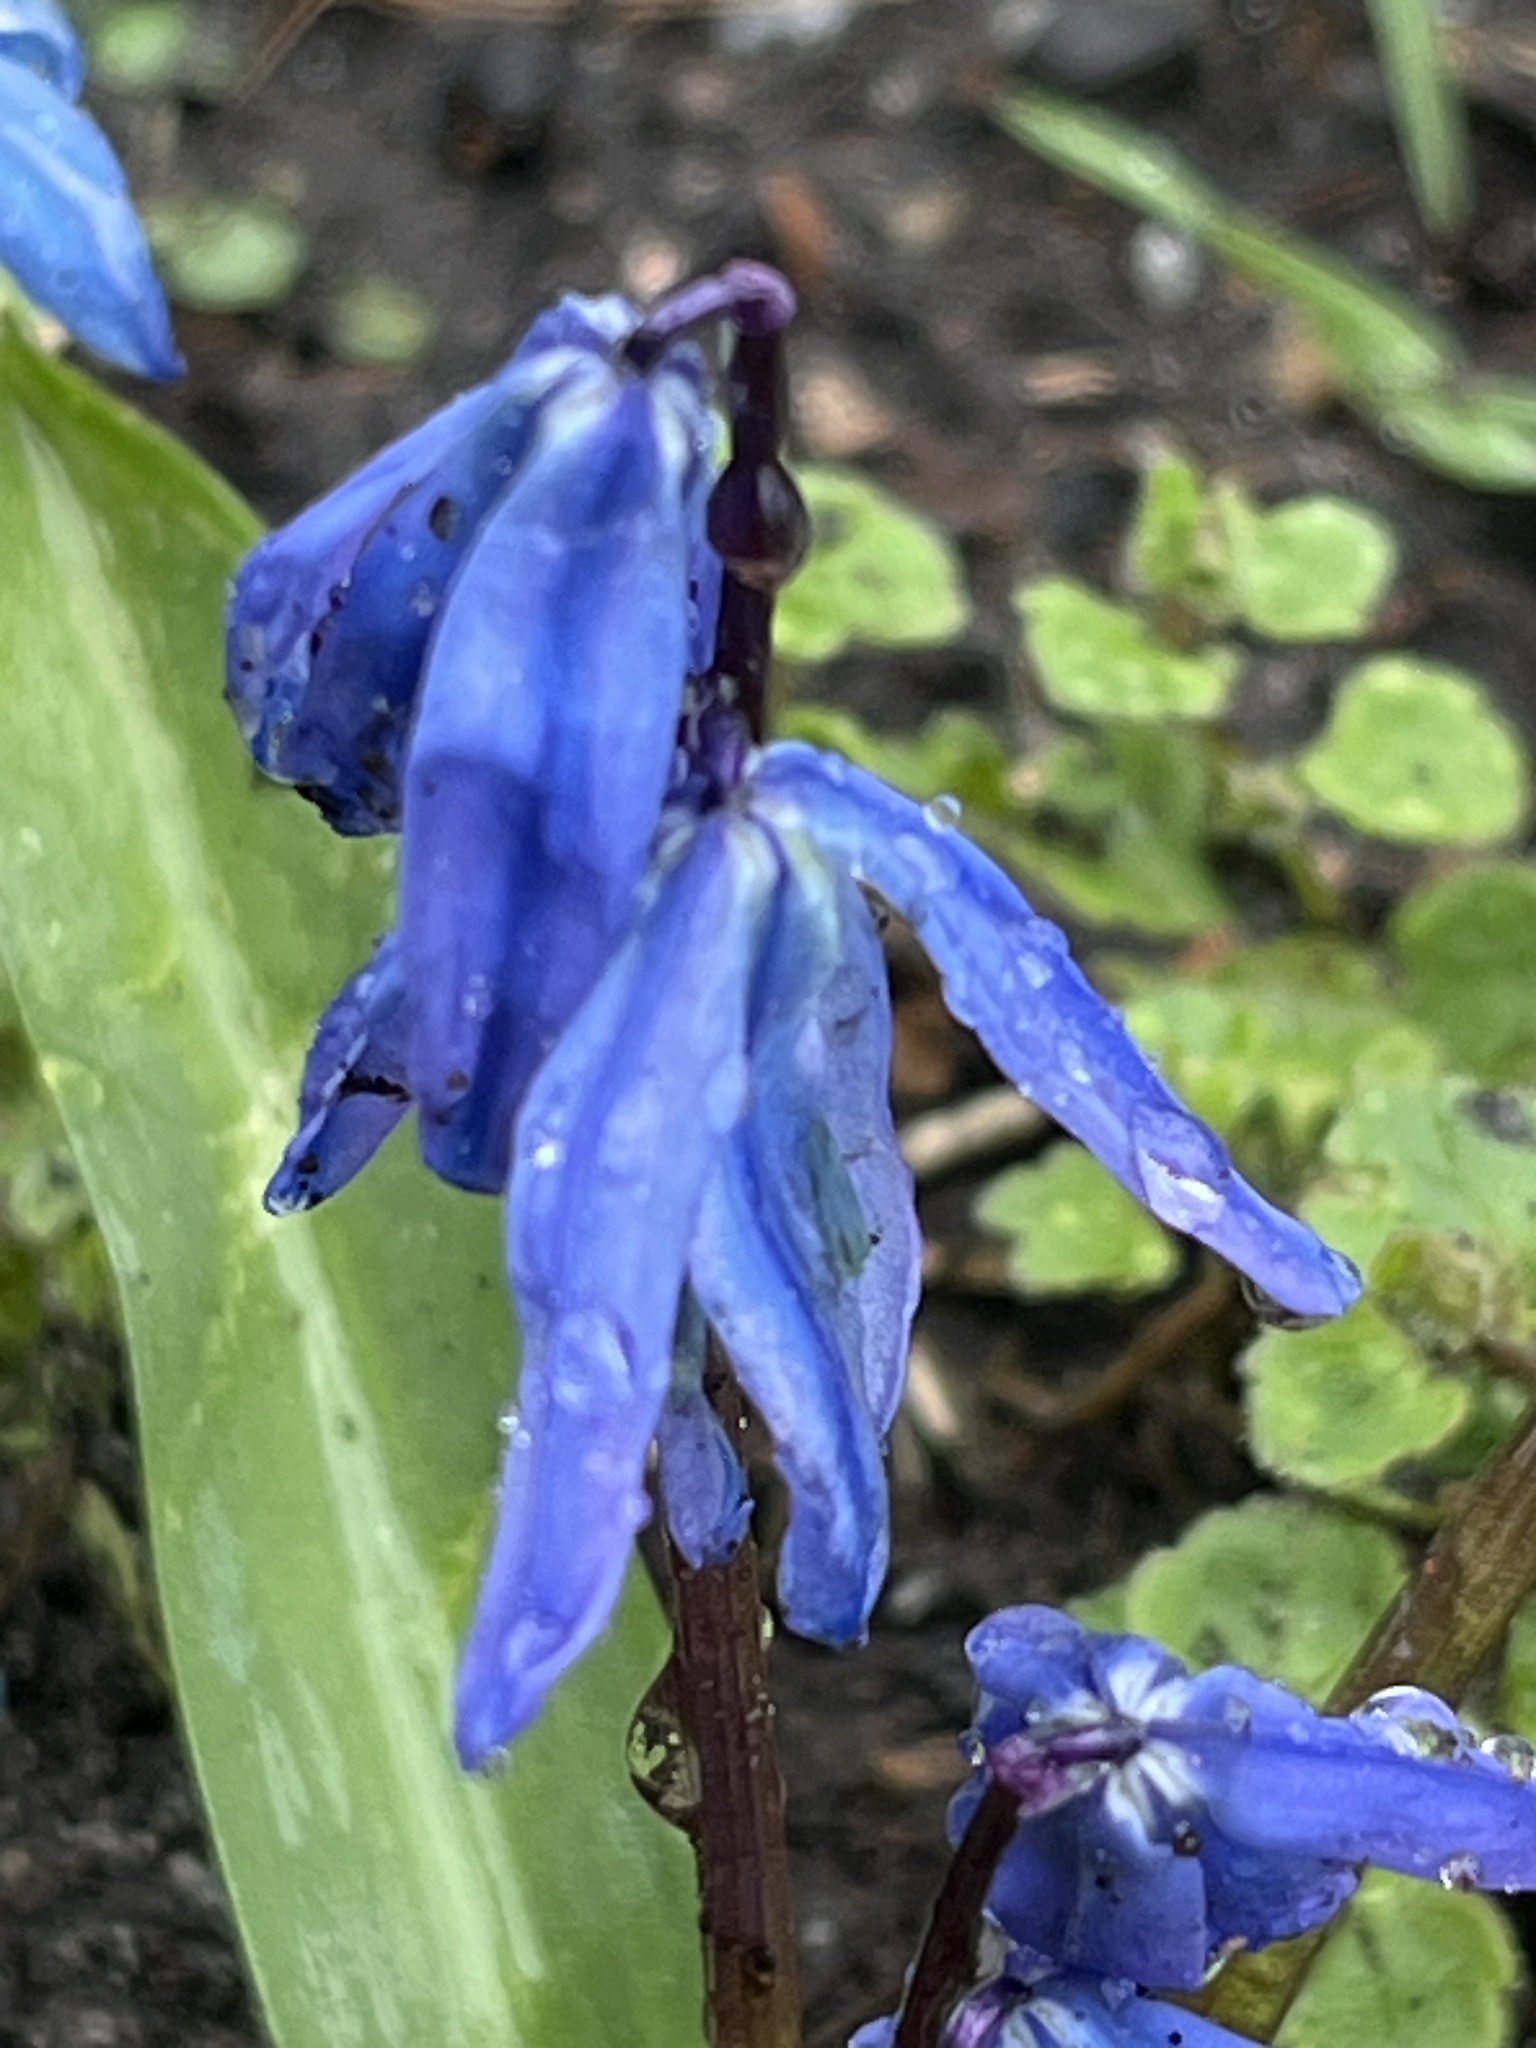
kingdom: Plantae
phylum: Tracheophyta
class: Liliopsida
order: Asparagales
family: Asparagaceae
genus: Scilla
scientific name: Scilla siberica
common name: Siberian squill
